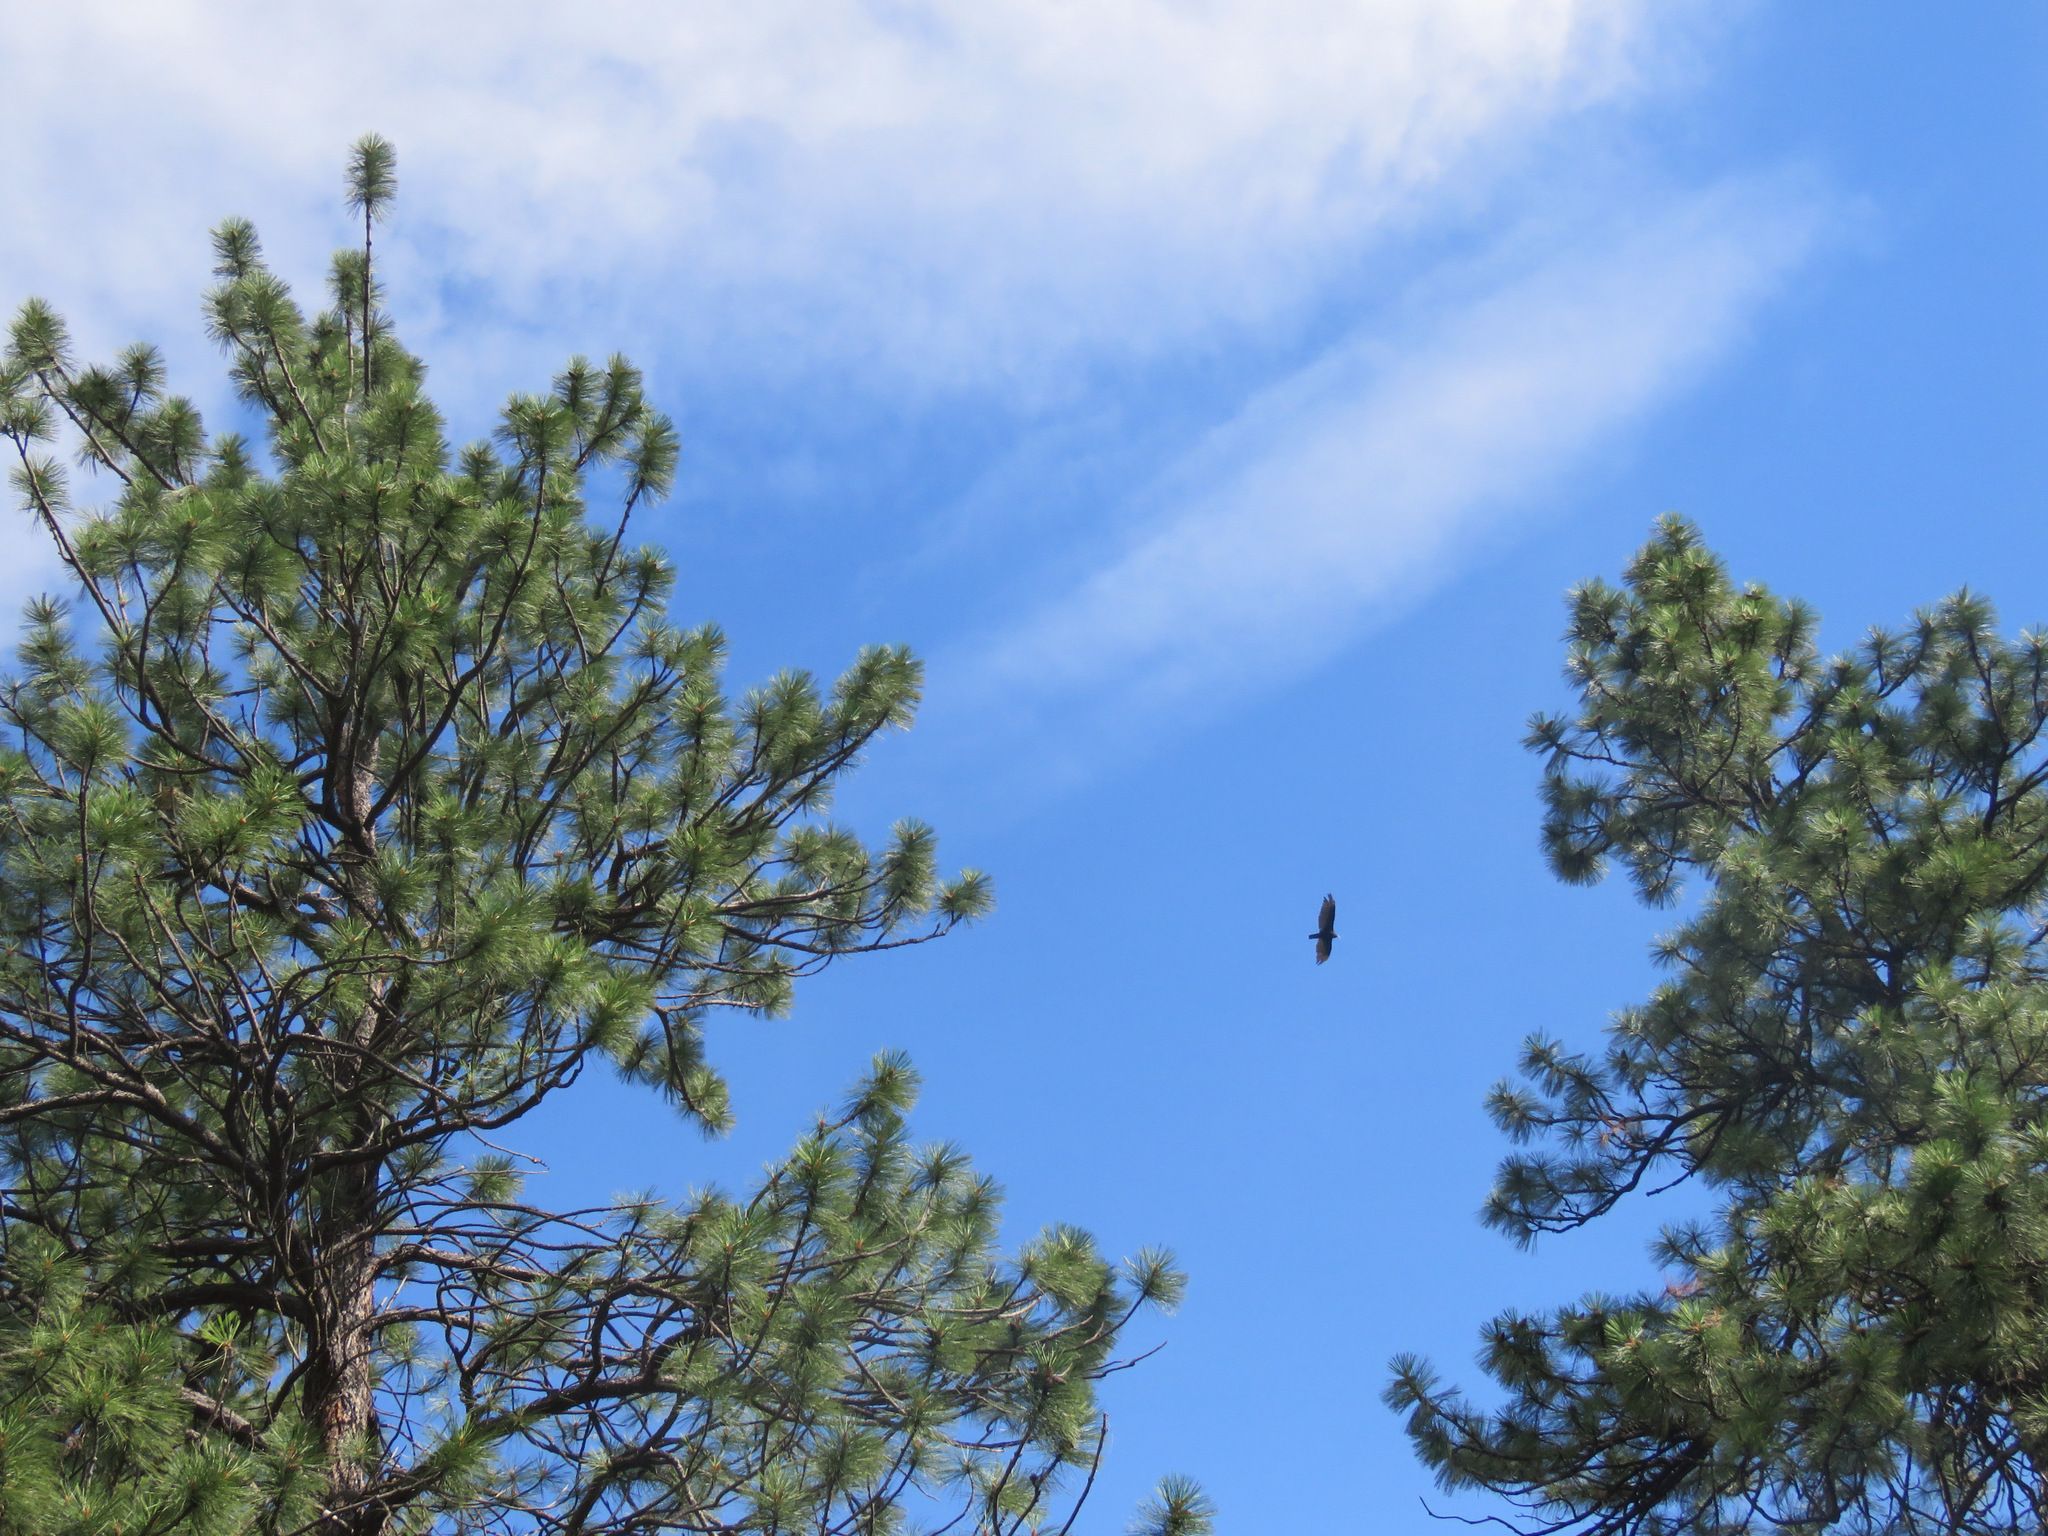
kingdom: Animalia
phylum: Chordata
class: Aves
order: Accipitriformes
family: Cathartidae
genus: Cathartes
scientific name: Cathartes aura
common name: Turkey vulture
